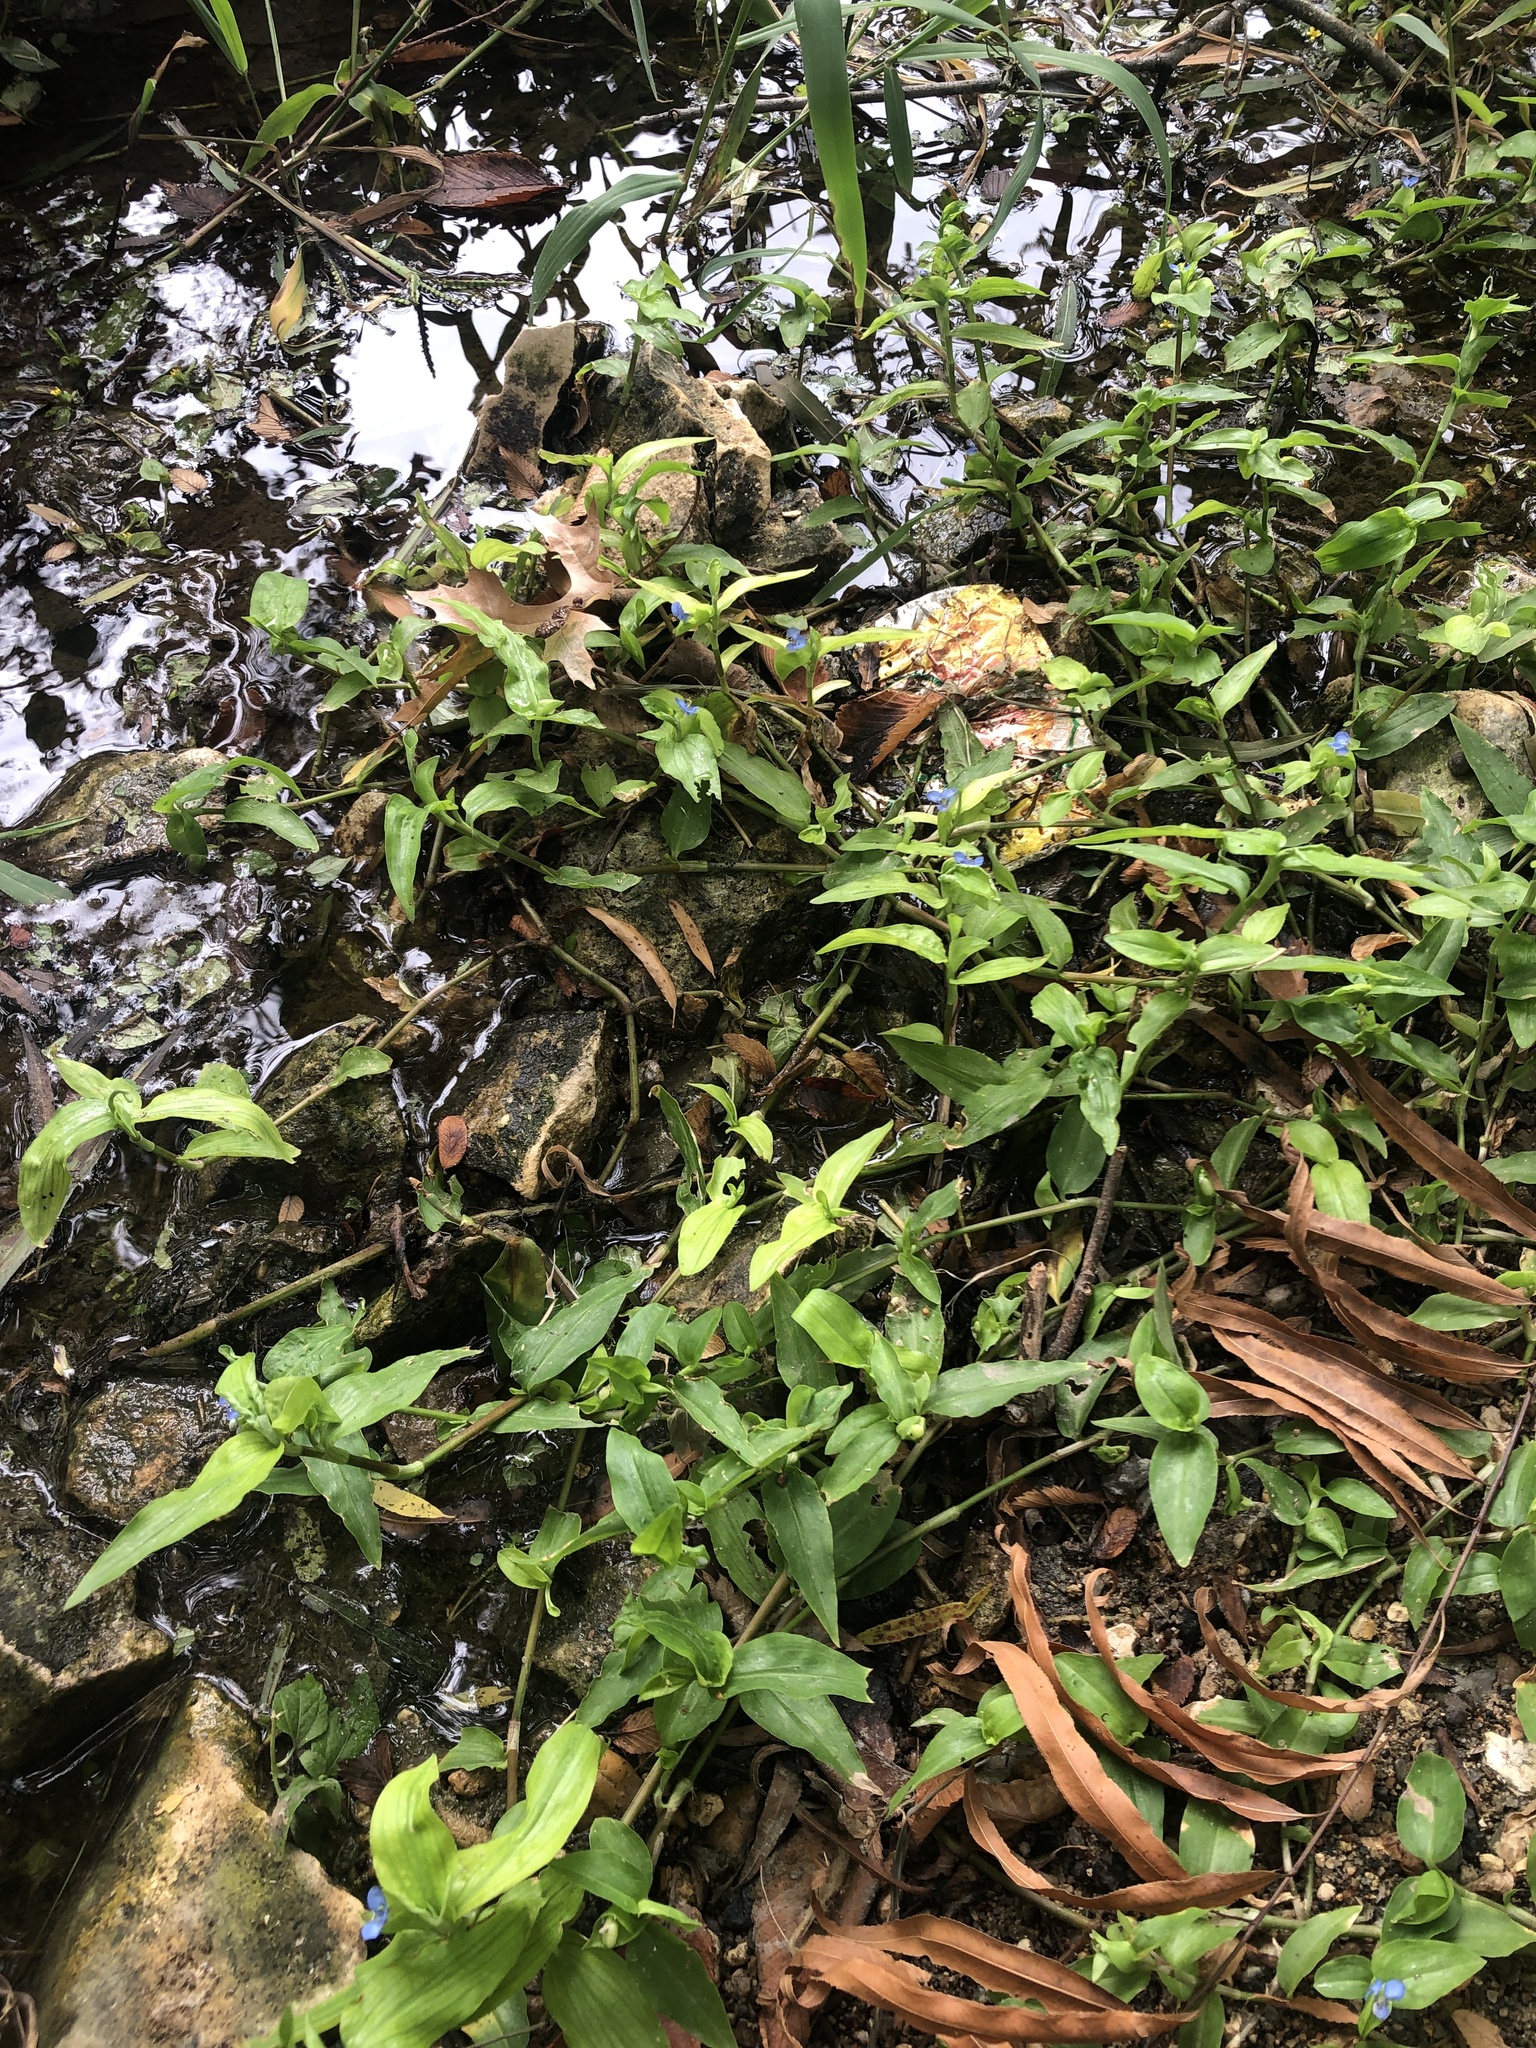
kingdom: Plantae
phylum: Tracheophyta
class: Liliopsida
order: Commelinales
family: Commelinaceae
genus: Commelina
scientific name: Commelina diffusa
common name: Climbing dayflower
